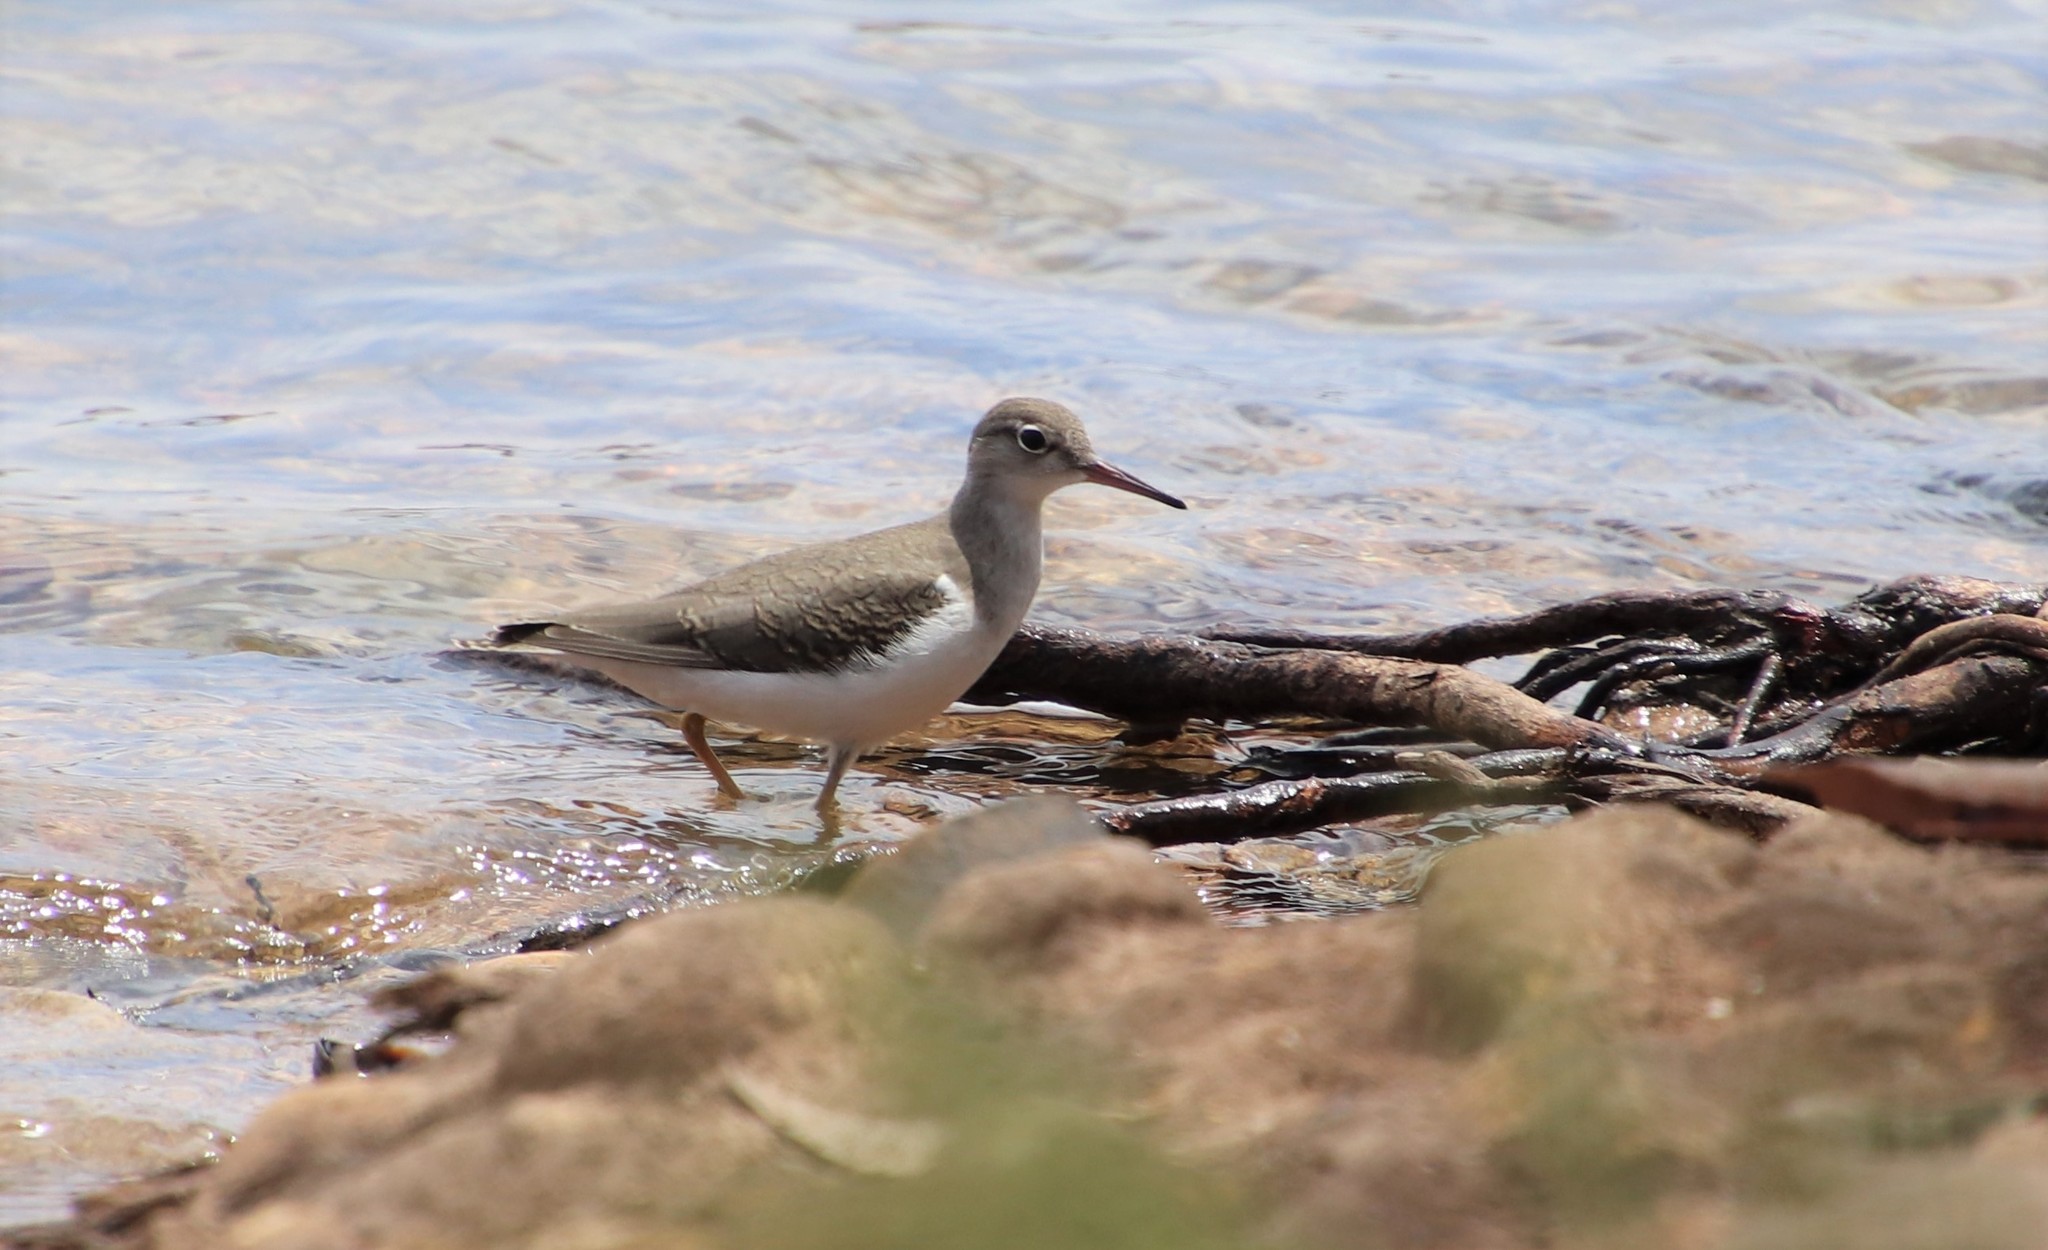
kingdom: Animalia
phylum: Chordata
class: Aves
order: Charadriiformes
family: Scolopacidae
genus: Actitis
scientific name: Actitis macularius
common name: Spotted sandpiper
